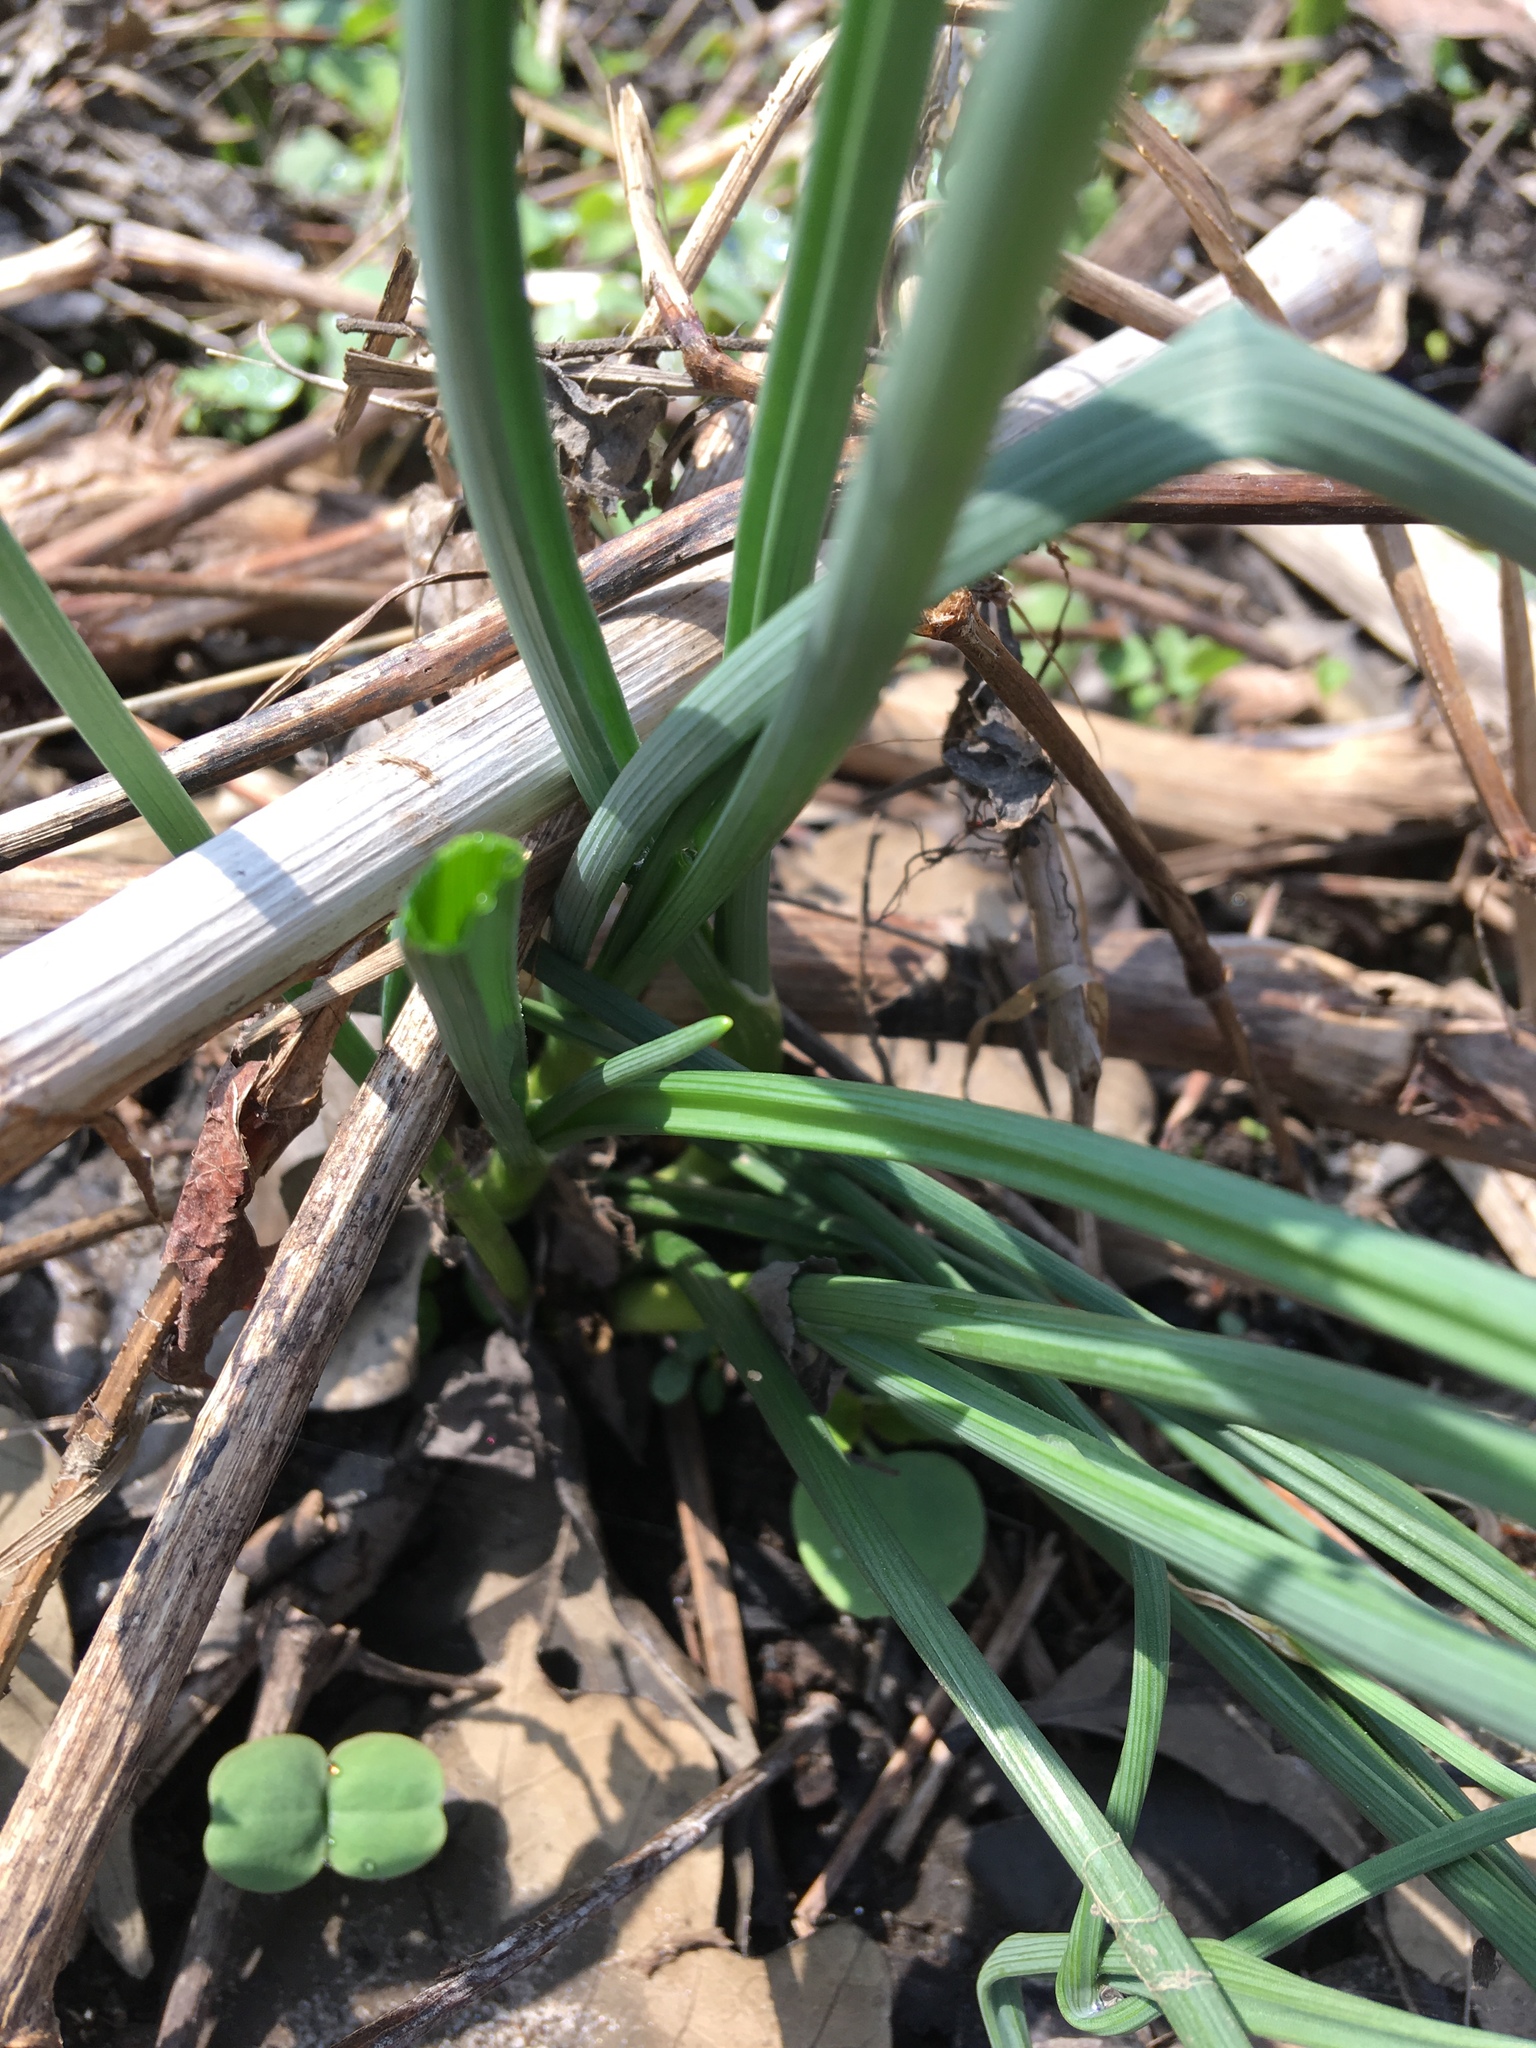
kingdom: Plantae
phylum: Tracheophyta
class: Liliopsida
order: Asparagales
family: Amaryllidaceae
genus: Allium
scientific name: Allium vineale
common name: Crow garlic
